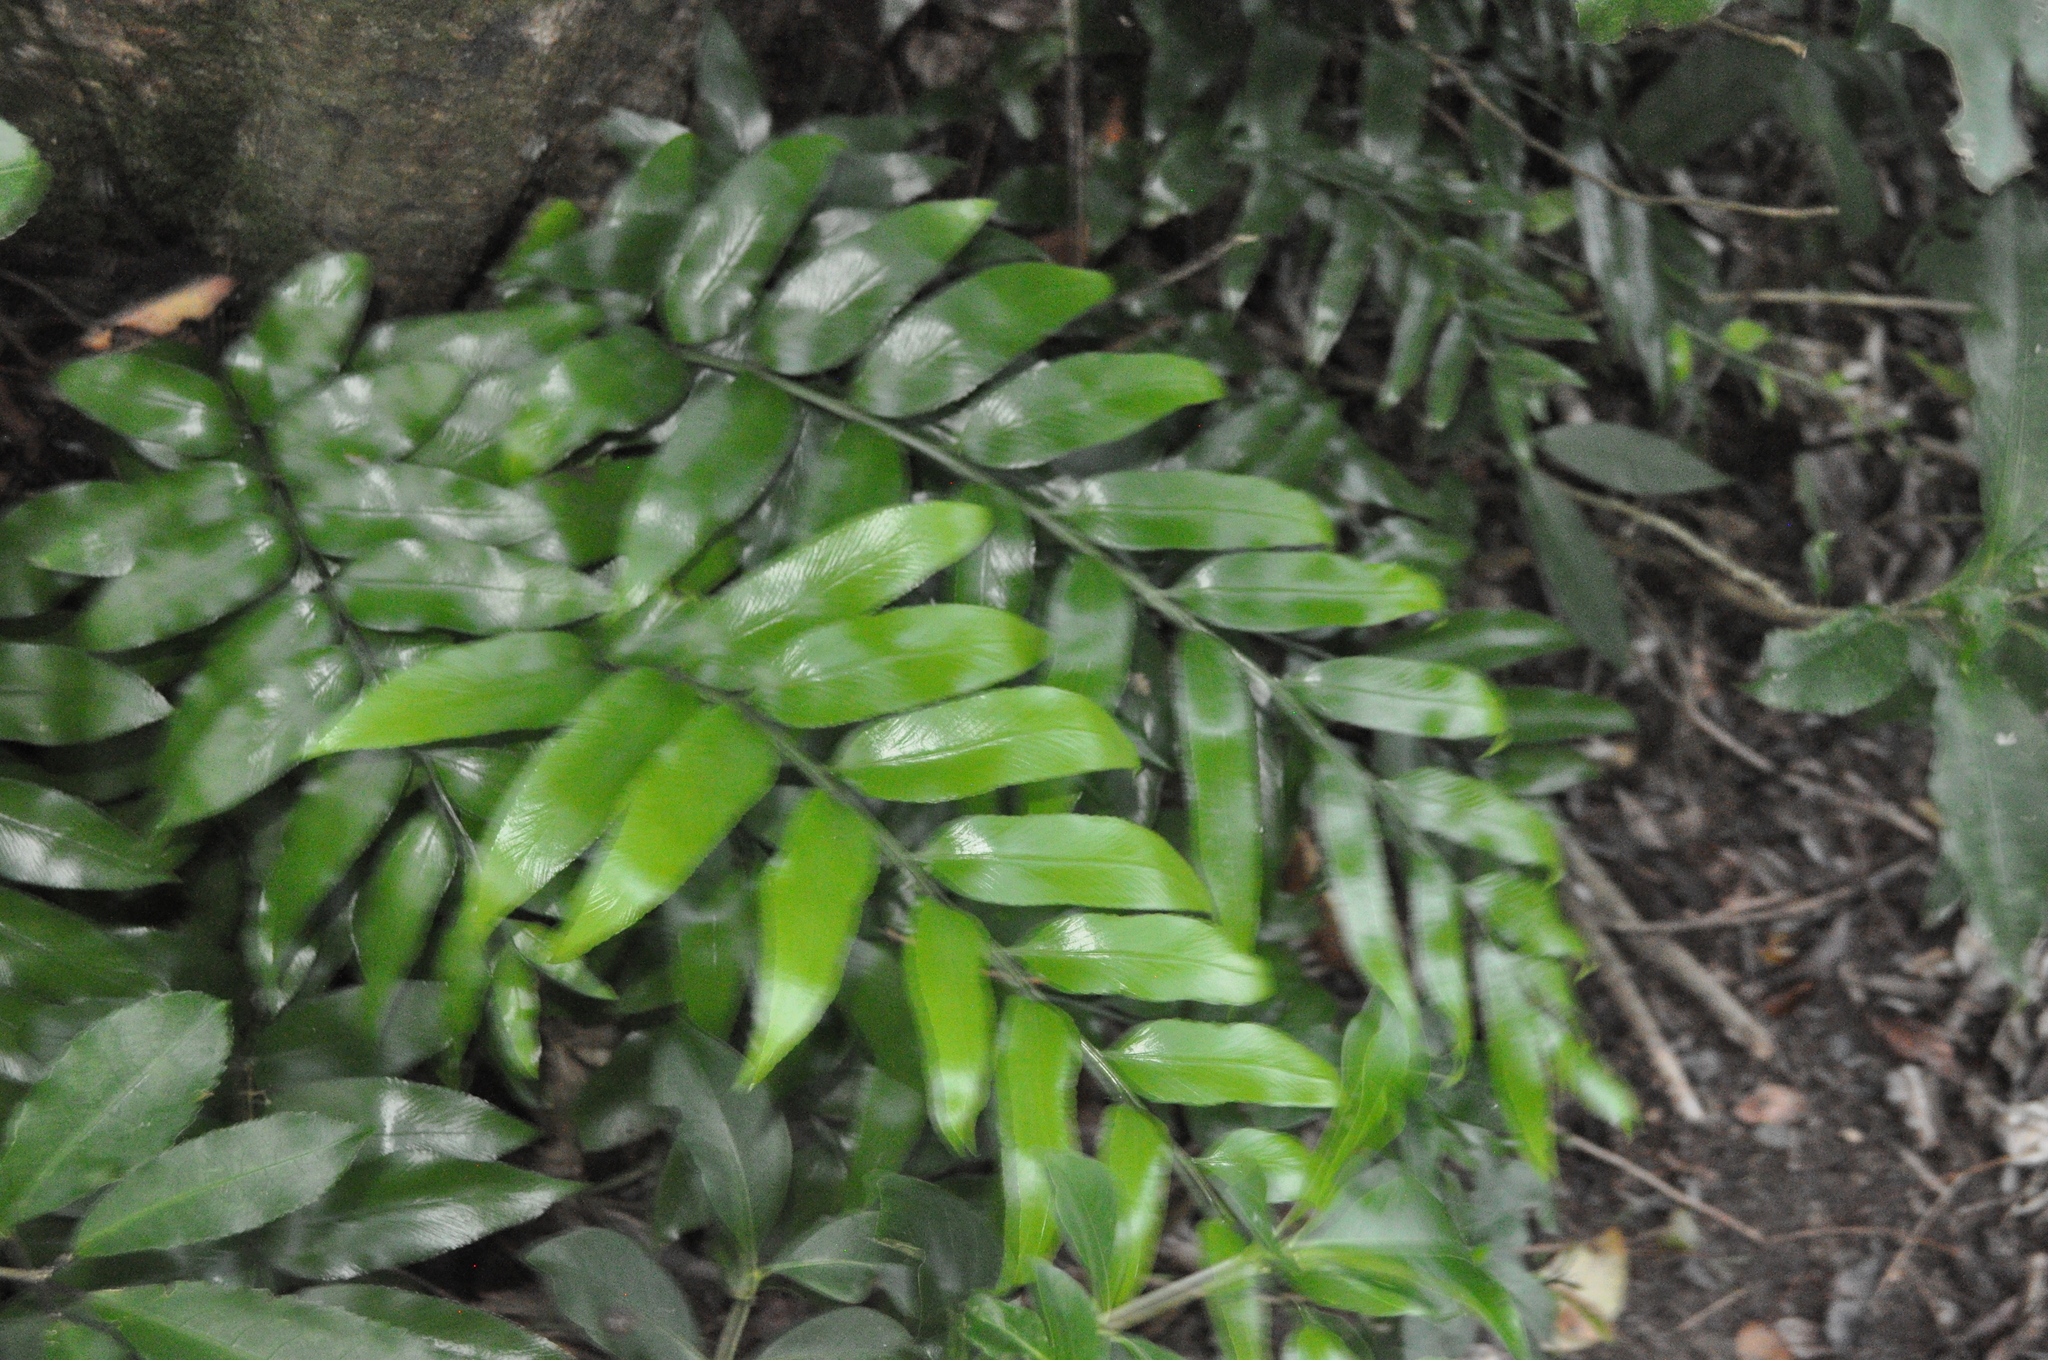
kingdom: Plantae
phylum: Tracheophyta
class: Polypodiopsida
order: Polypodiales
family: Aspleniaceae
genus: Asplenium
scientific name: Asplenium oblongifolium
